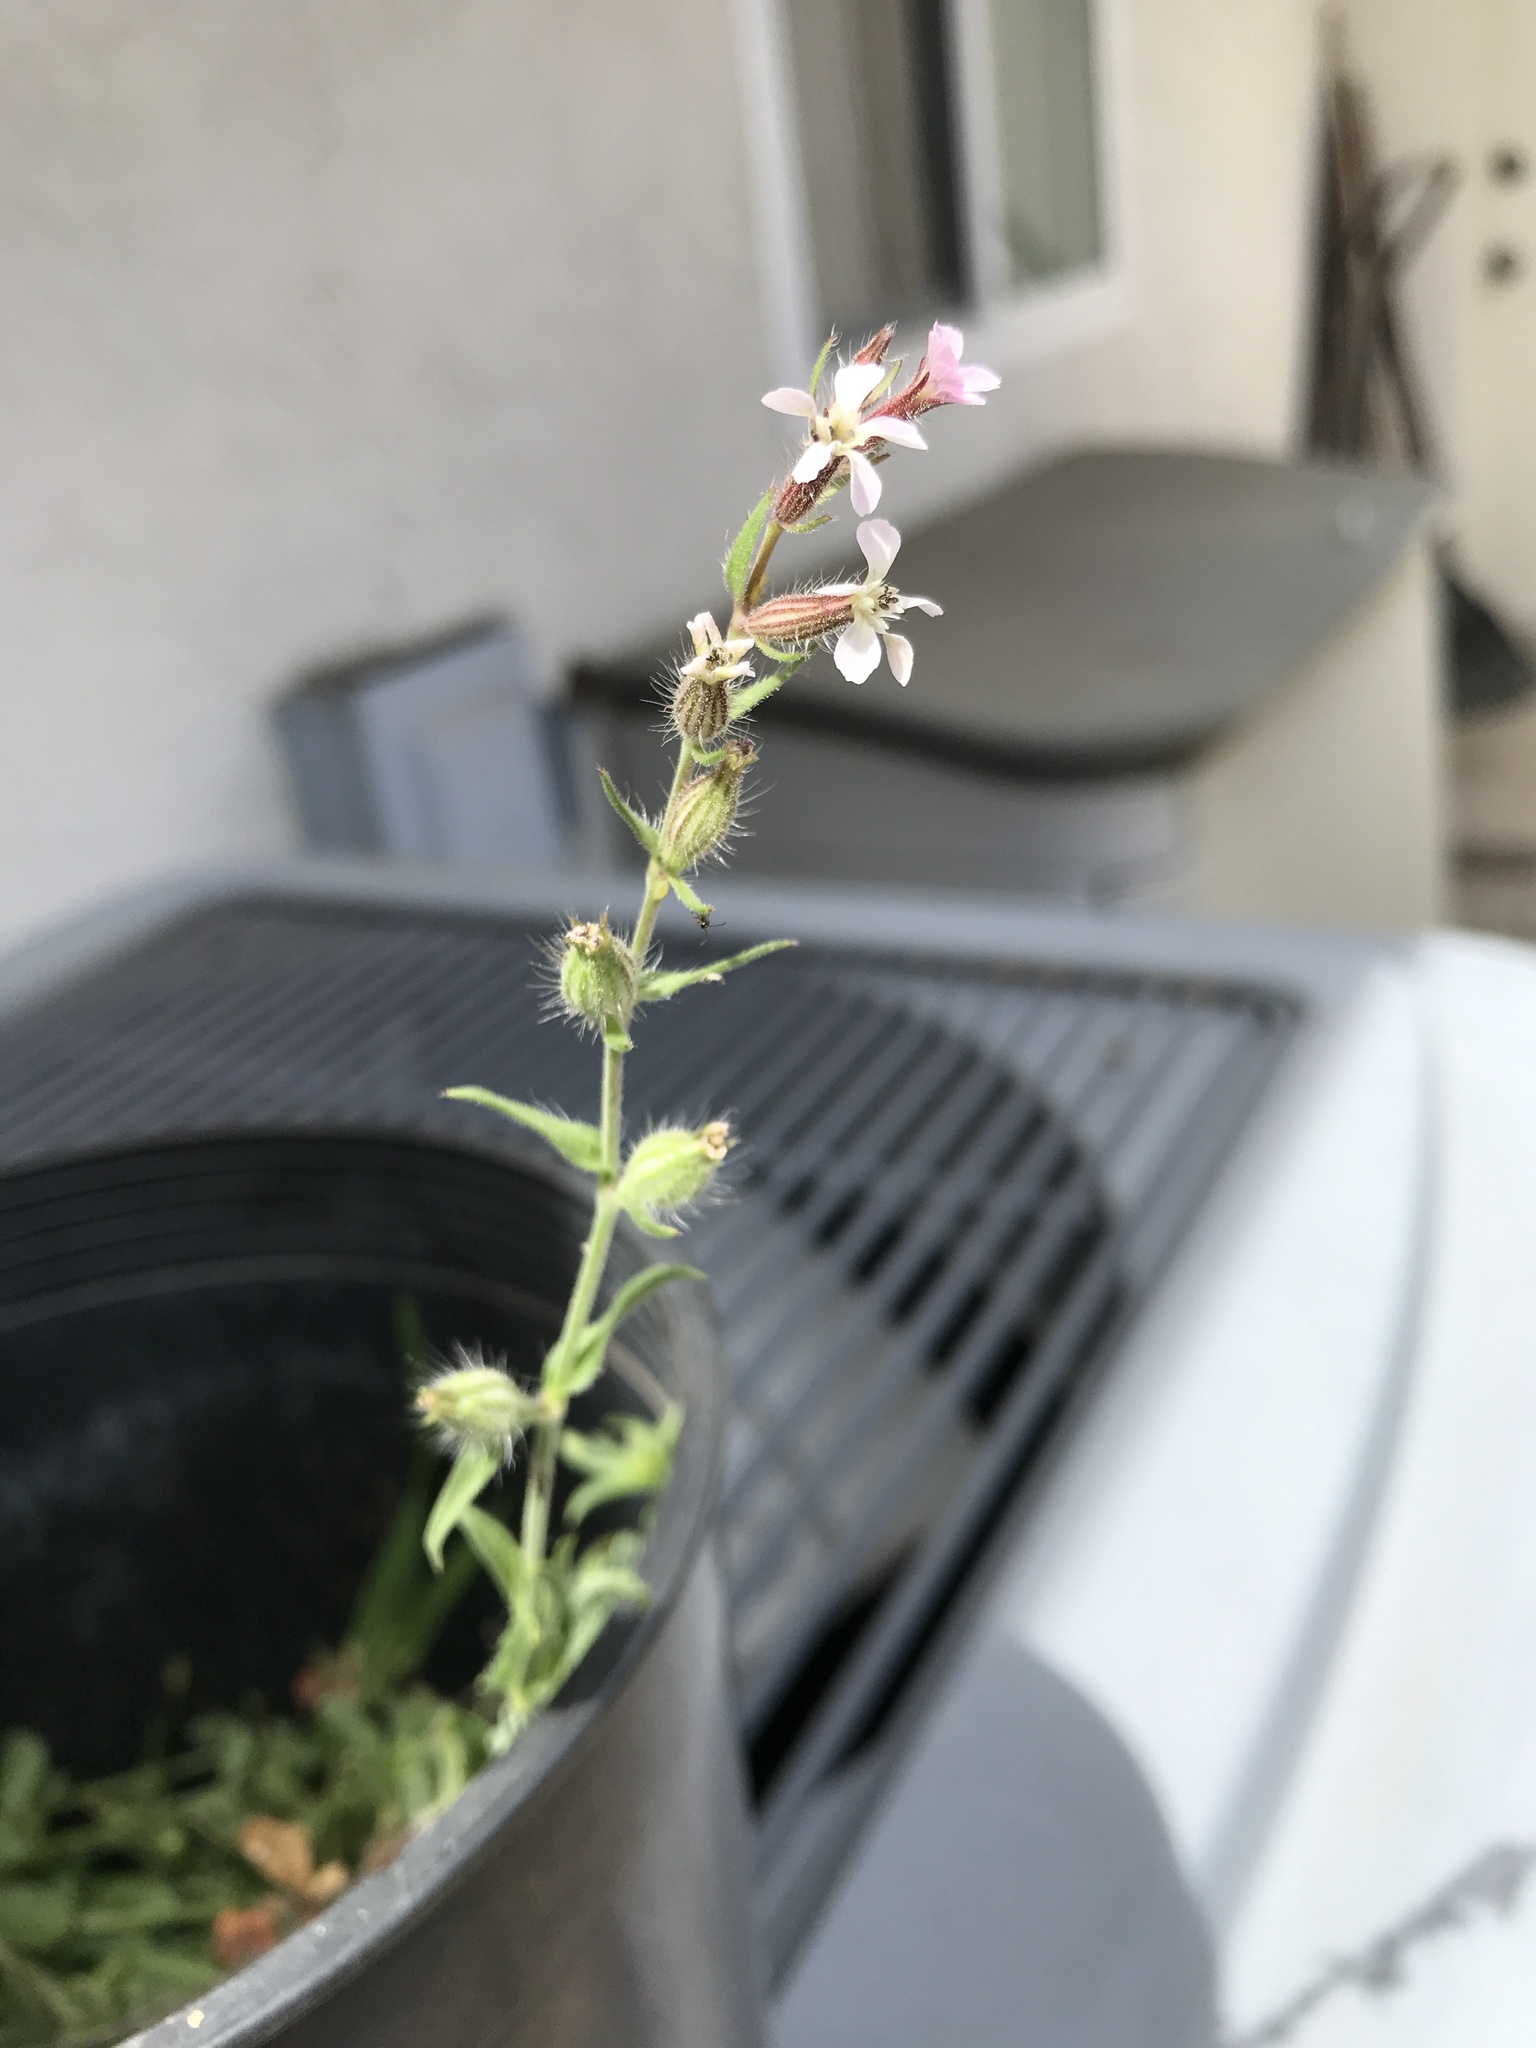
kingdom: Plantae
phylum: Tracheophyta
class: Magnoliopsida
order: Caryophyllales
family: Caryophyllaceae
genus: Silene
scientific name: Silene gallica
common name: Small-flowered catchfly
